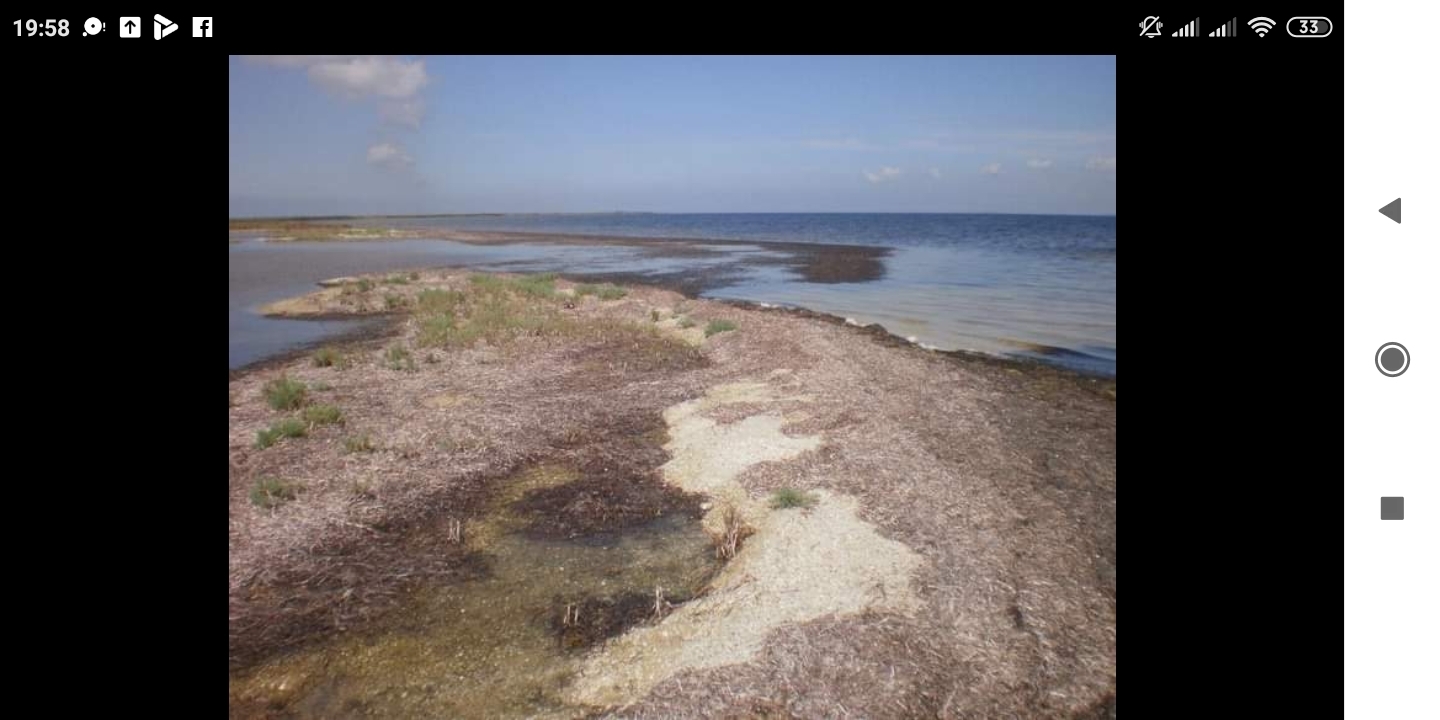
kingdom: Plantae
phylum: Tracheophyta
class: Liliopsida
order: Alismatales
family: Zosteraceae
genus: Zostera
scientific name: Zostera marina
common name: Eelgrass
